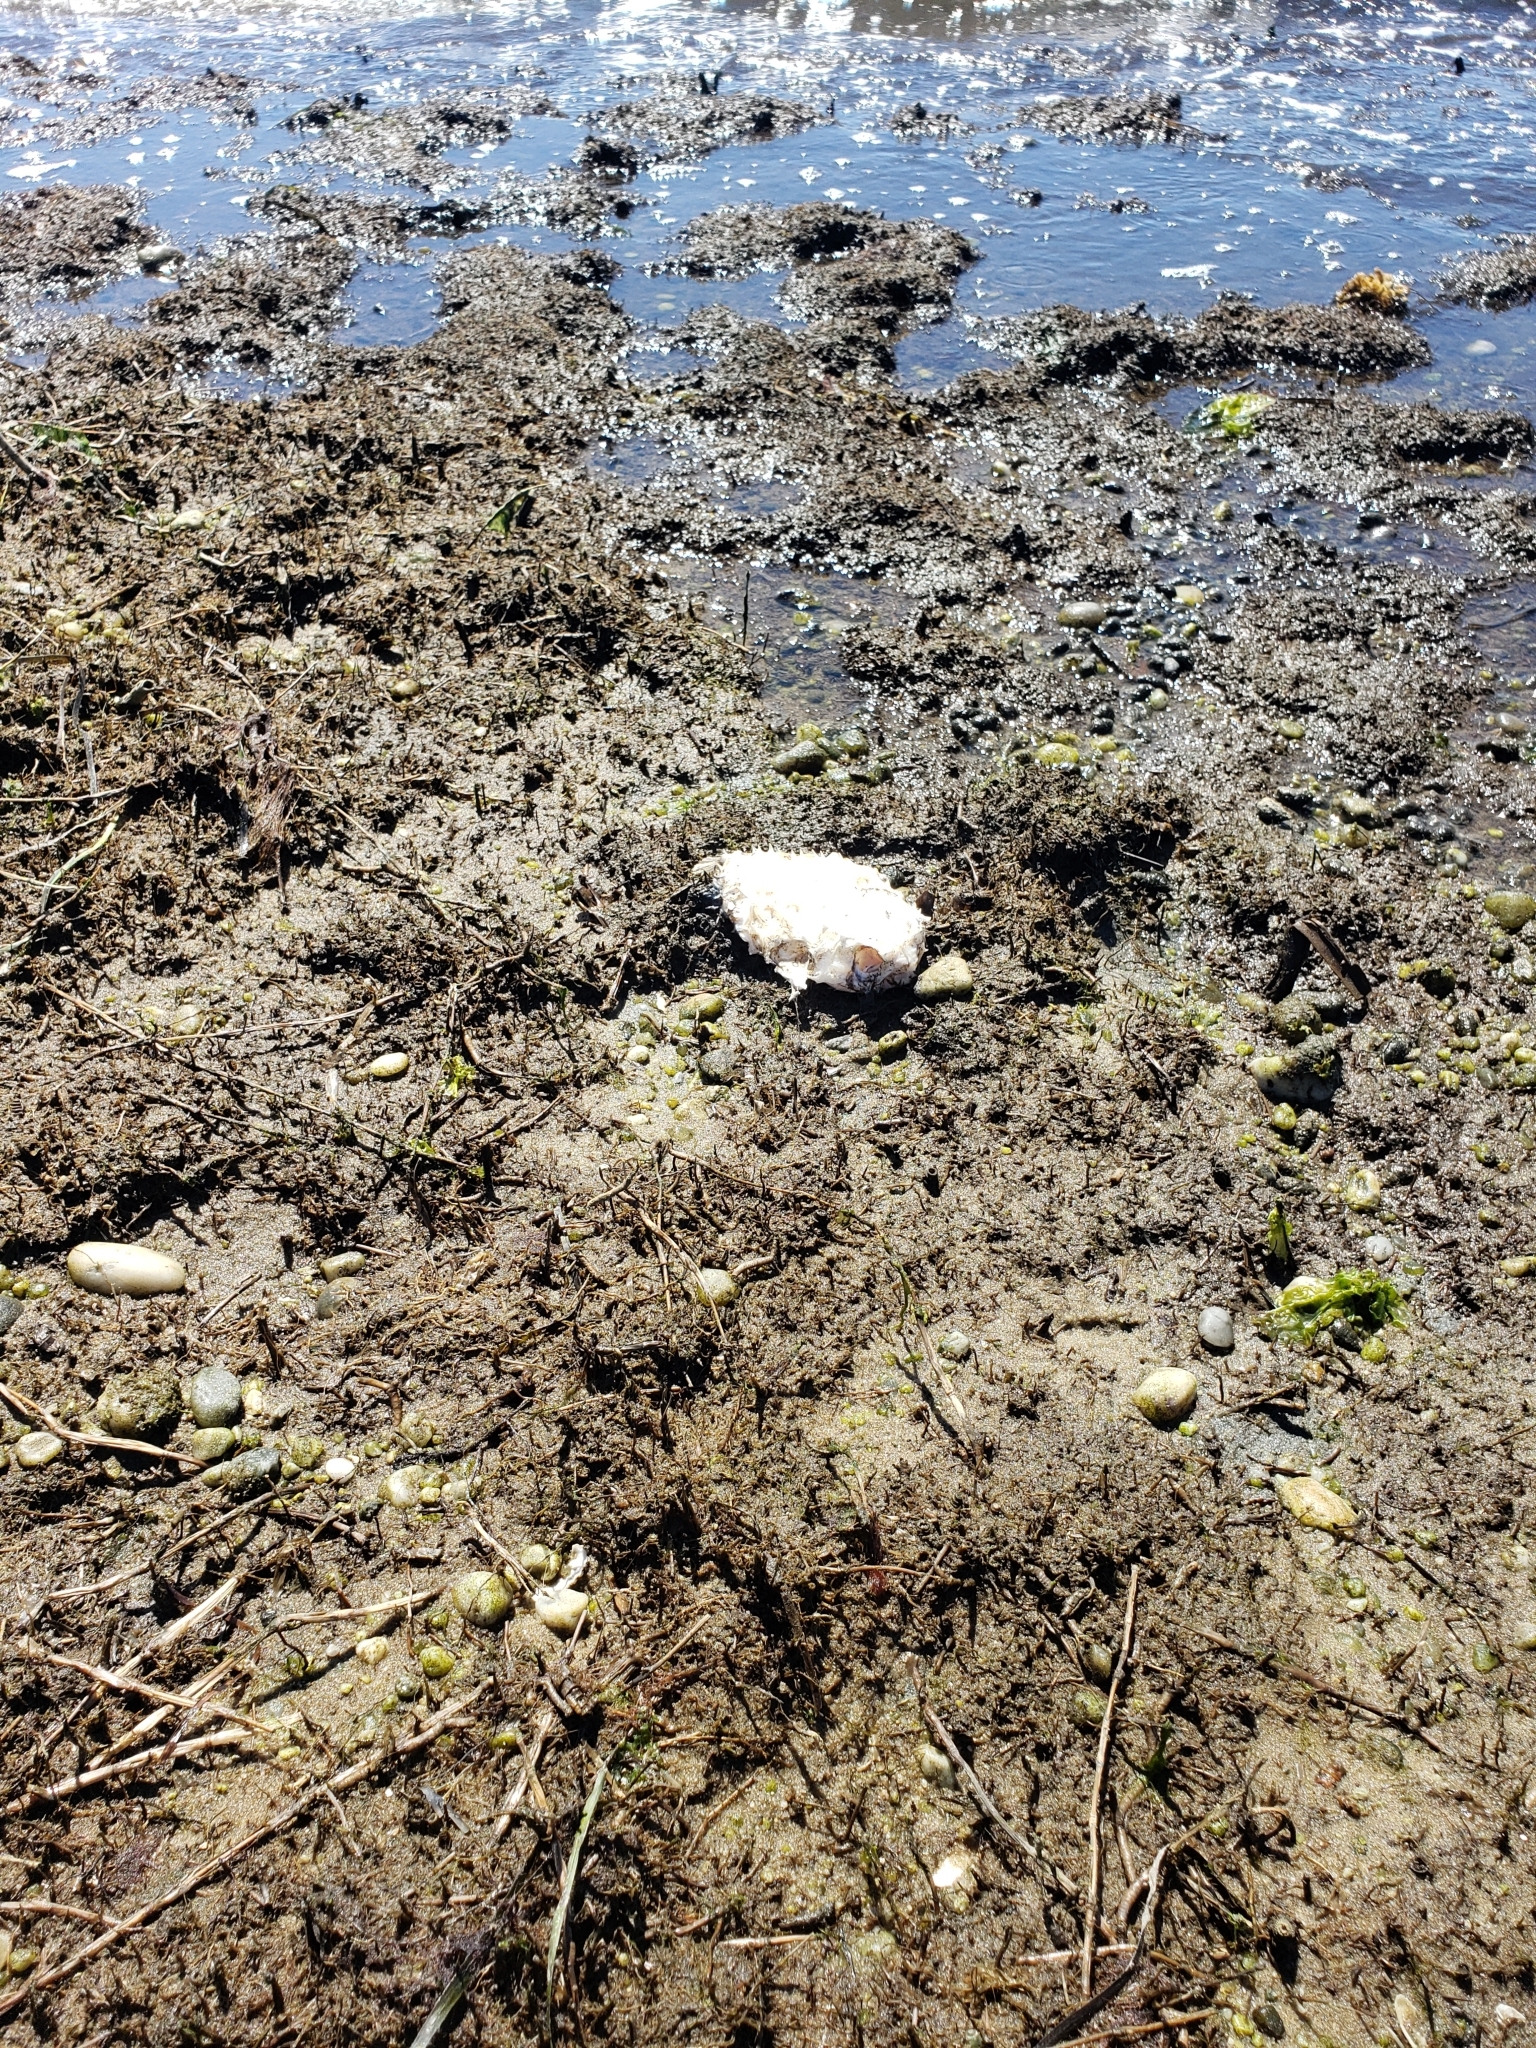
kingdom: Animalia
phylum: Chordata
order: Tetraodontiformes
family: Diodontidae
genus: Chilomycterus
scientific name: Chilomycterus schoepfii
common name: Striped burrfish
